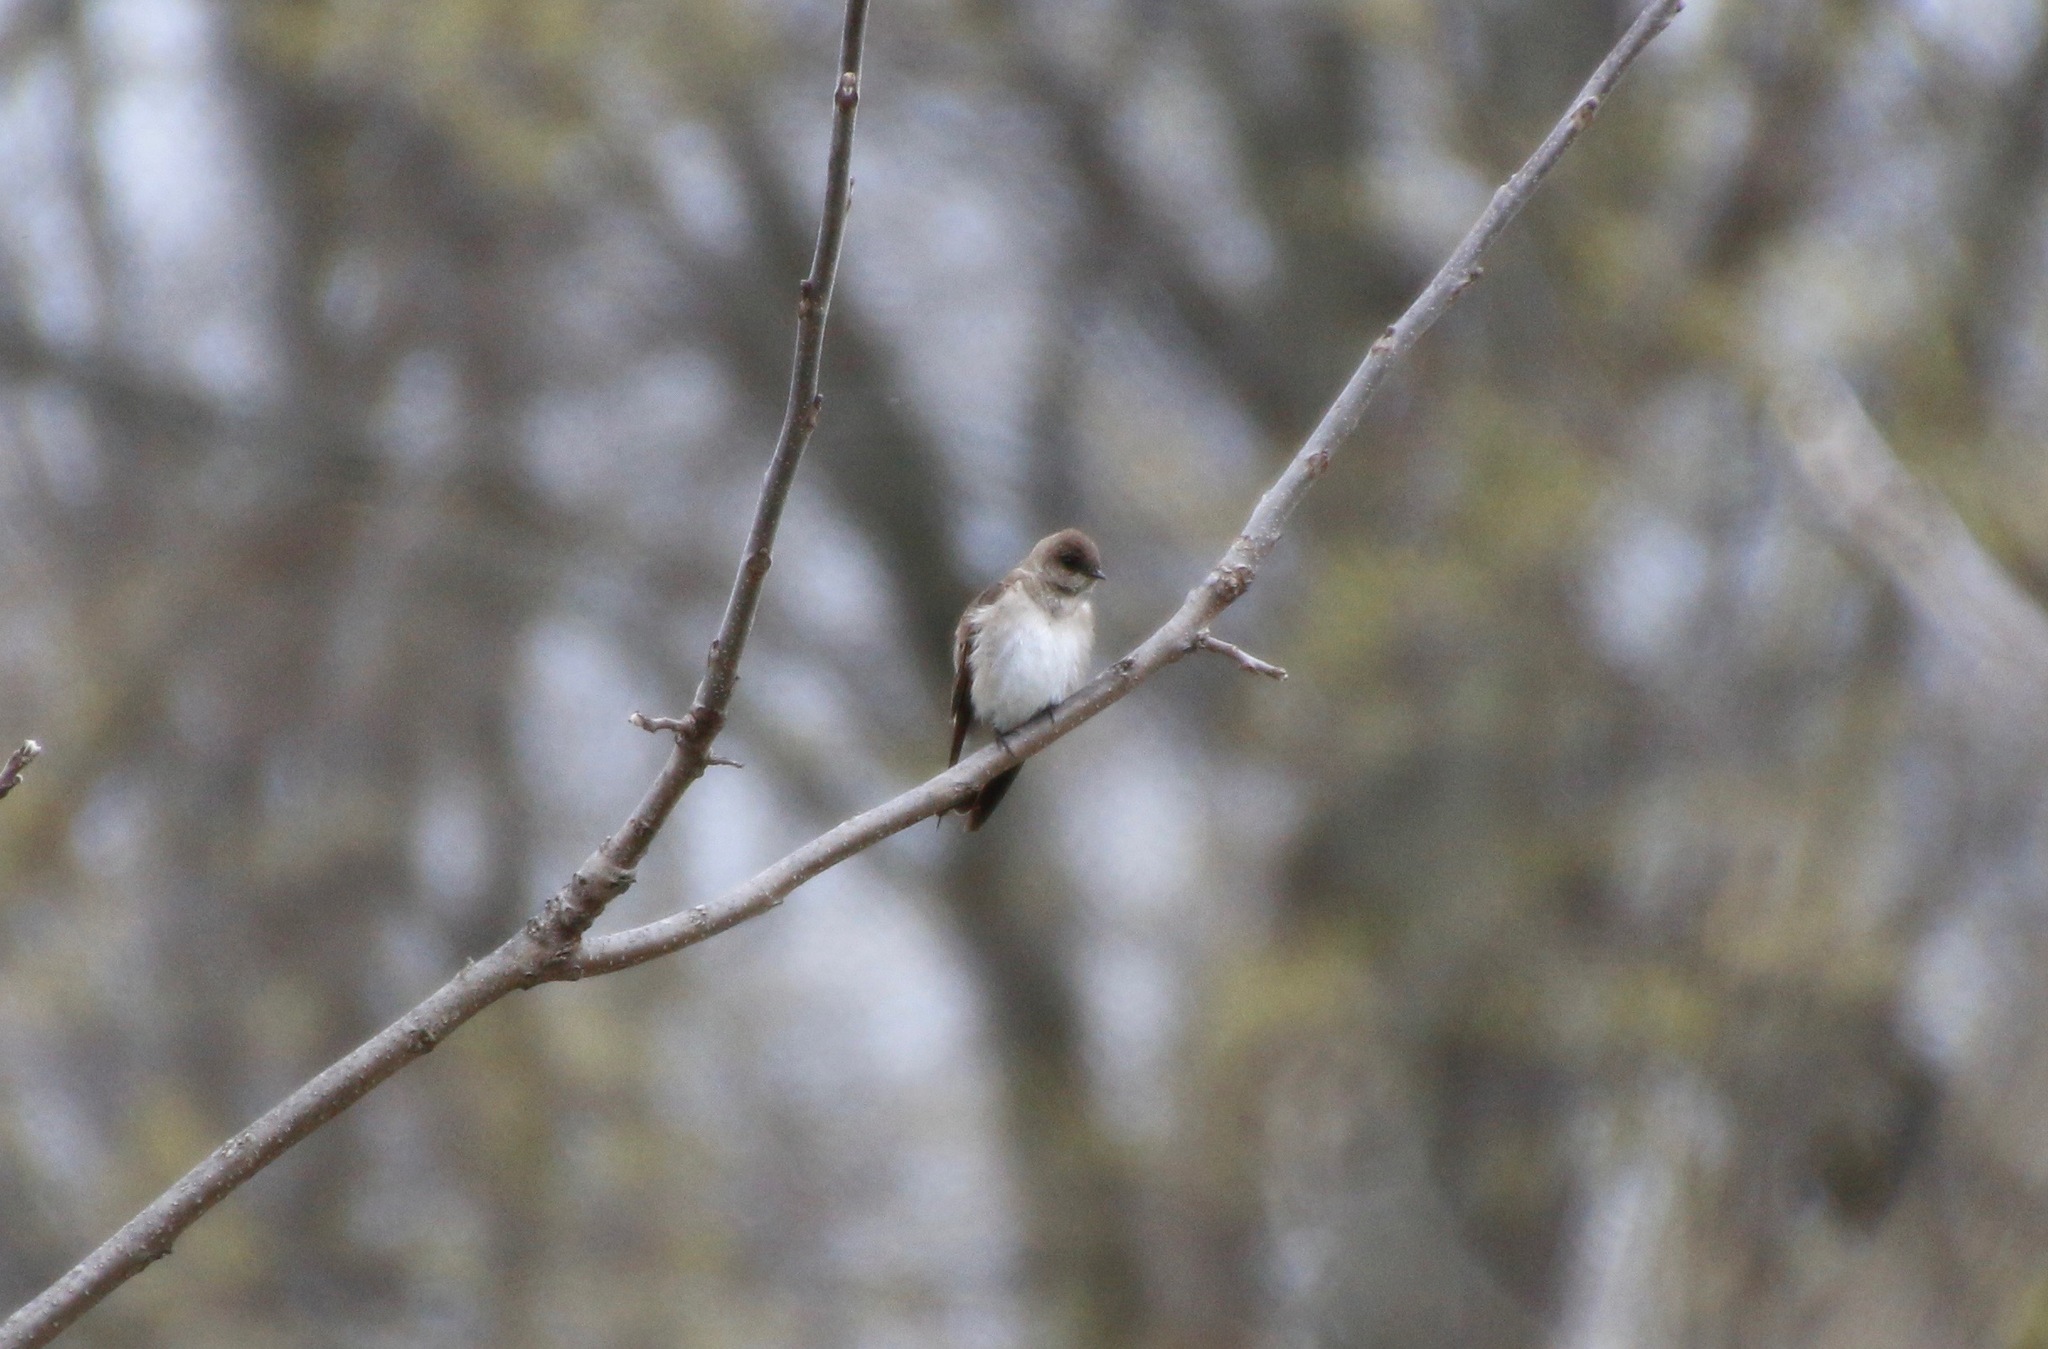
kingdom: Animalia
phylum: Chordata
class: Aves
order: Passeriformes
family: Hirundinidae
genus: Stelgidopteryx
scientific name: Stelgidopteryx serripennis
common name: Northern rough-winged swallow
